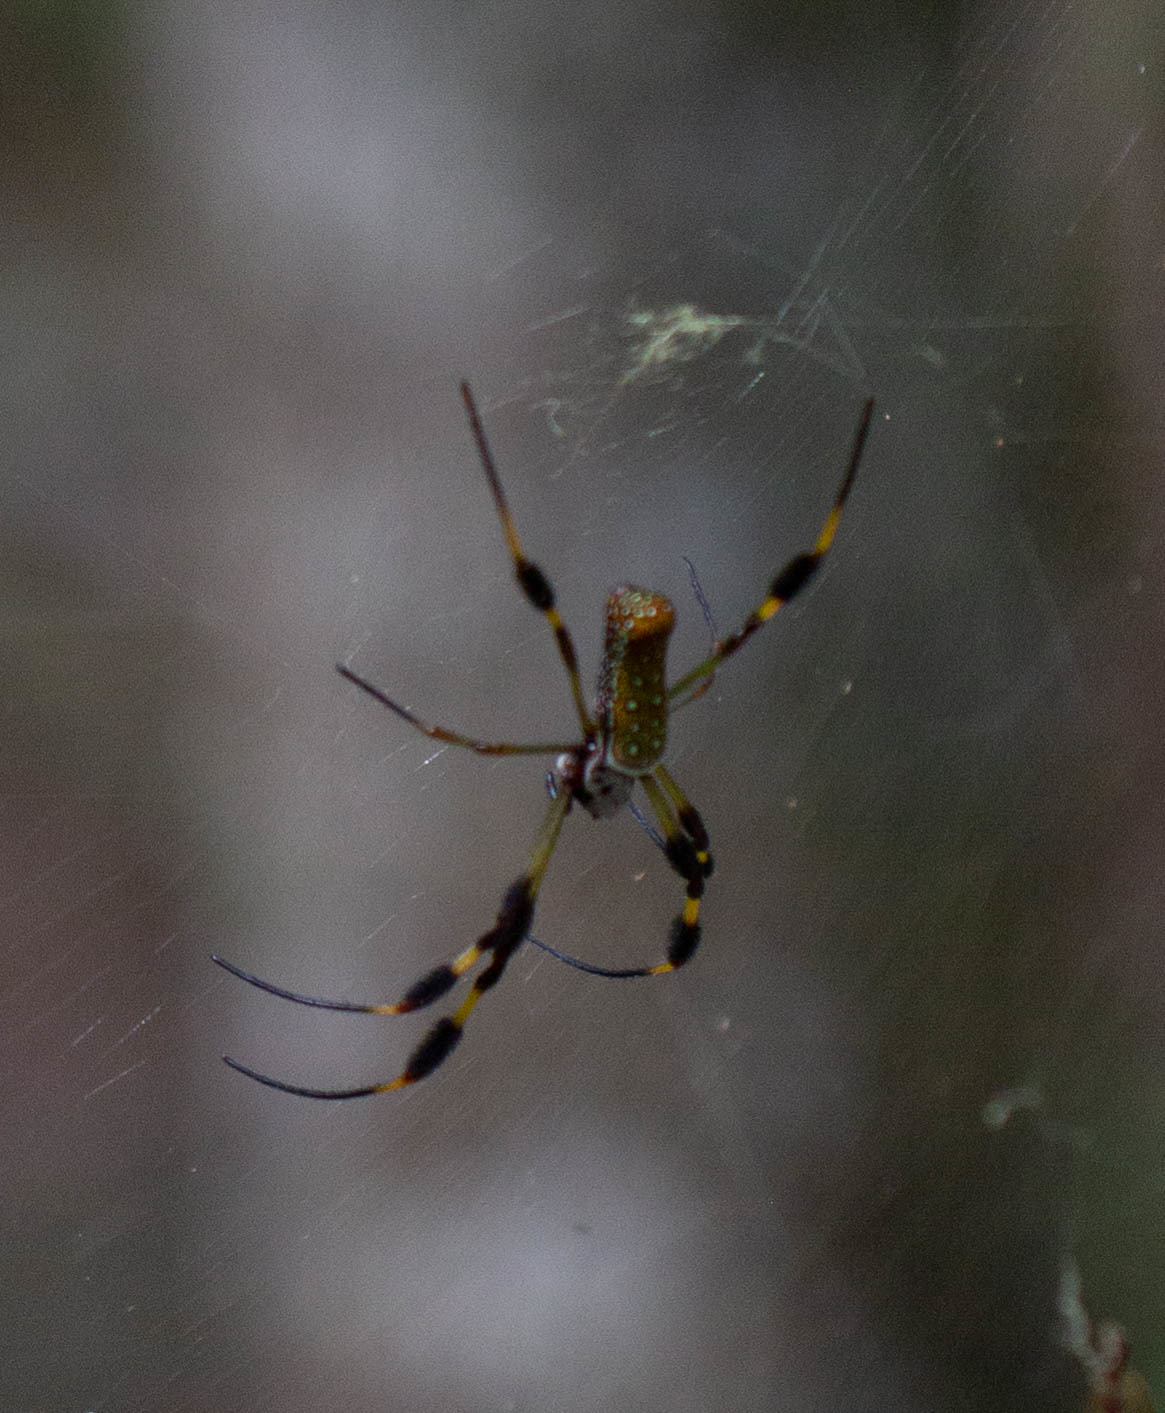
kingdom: Animalia
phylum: Arthropoda
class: Arachnida
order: Araneae
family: Araneidae
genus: Trichonephila
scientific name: Trichonephila clavipes
